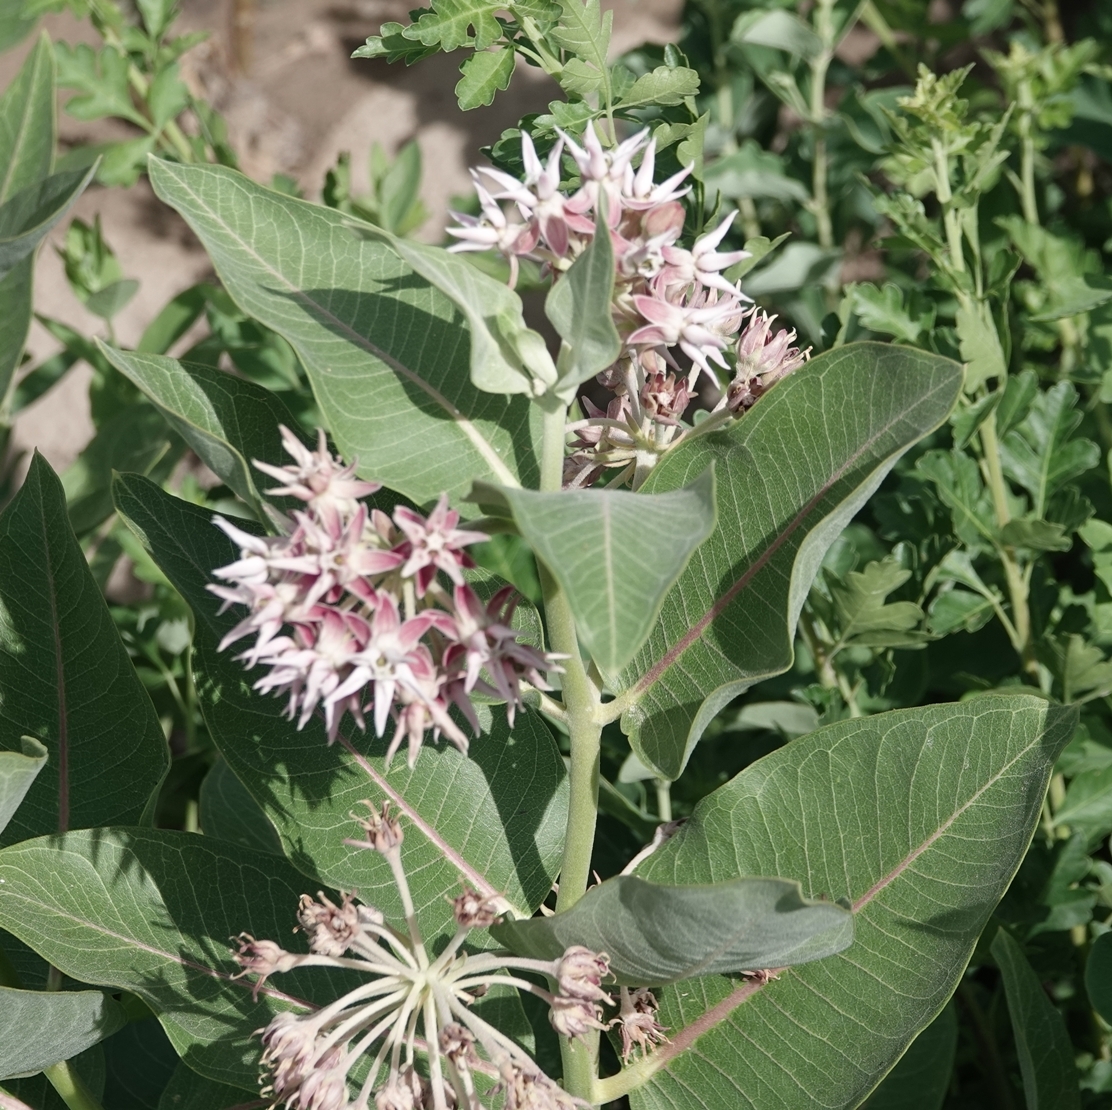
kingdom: Plantae
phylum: Tracheophyta
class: Magnoliopsida
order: Gentianales
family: Apocynaceae
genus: Asclepias
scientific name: Asclepias speciosa
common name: Showy milkweed
